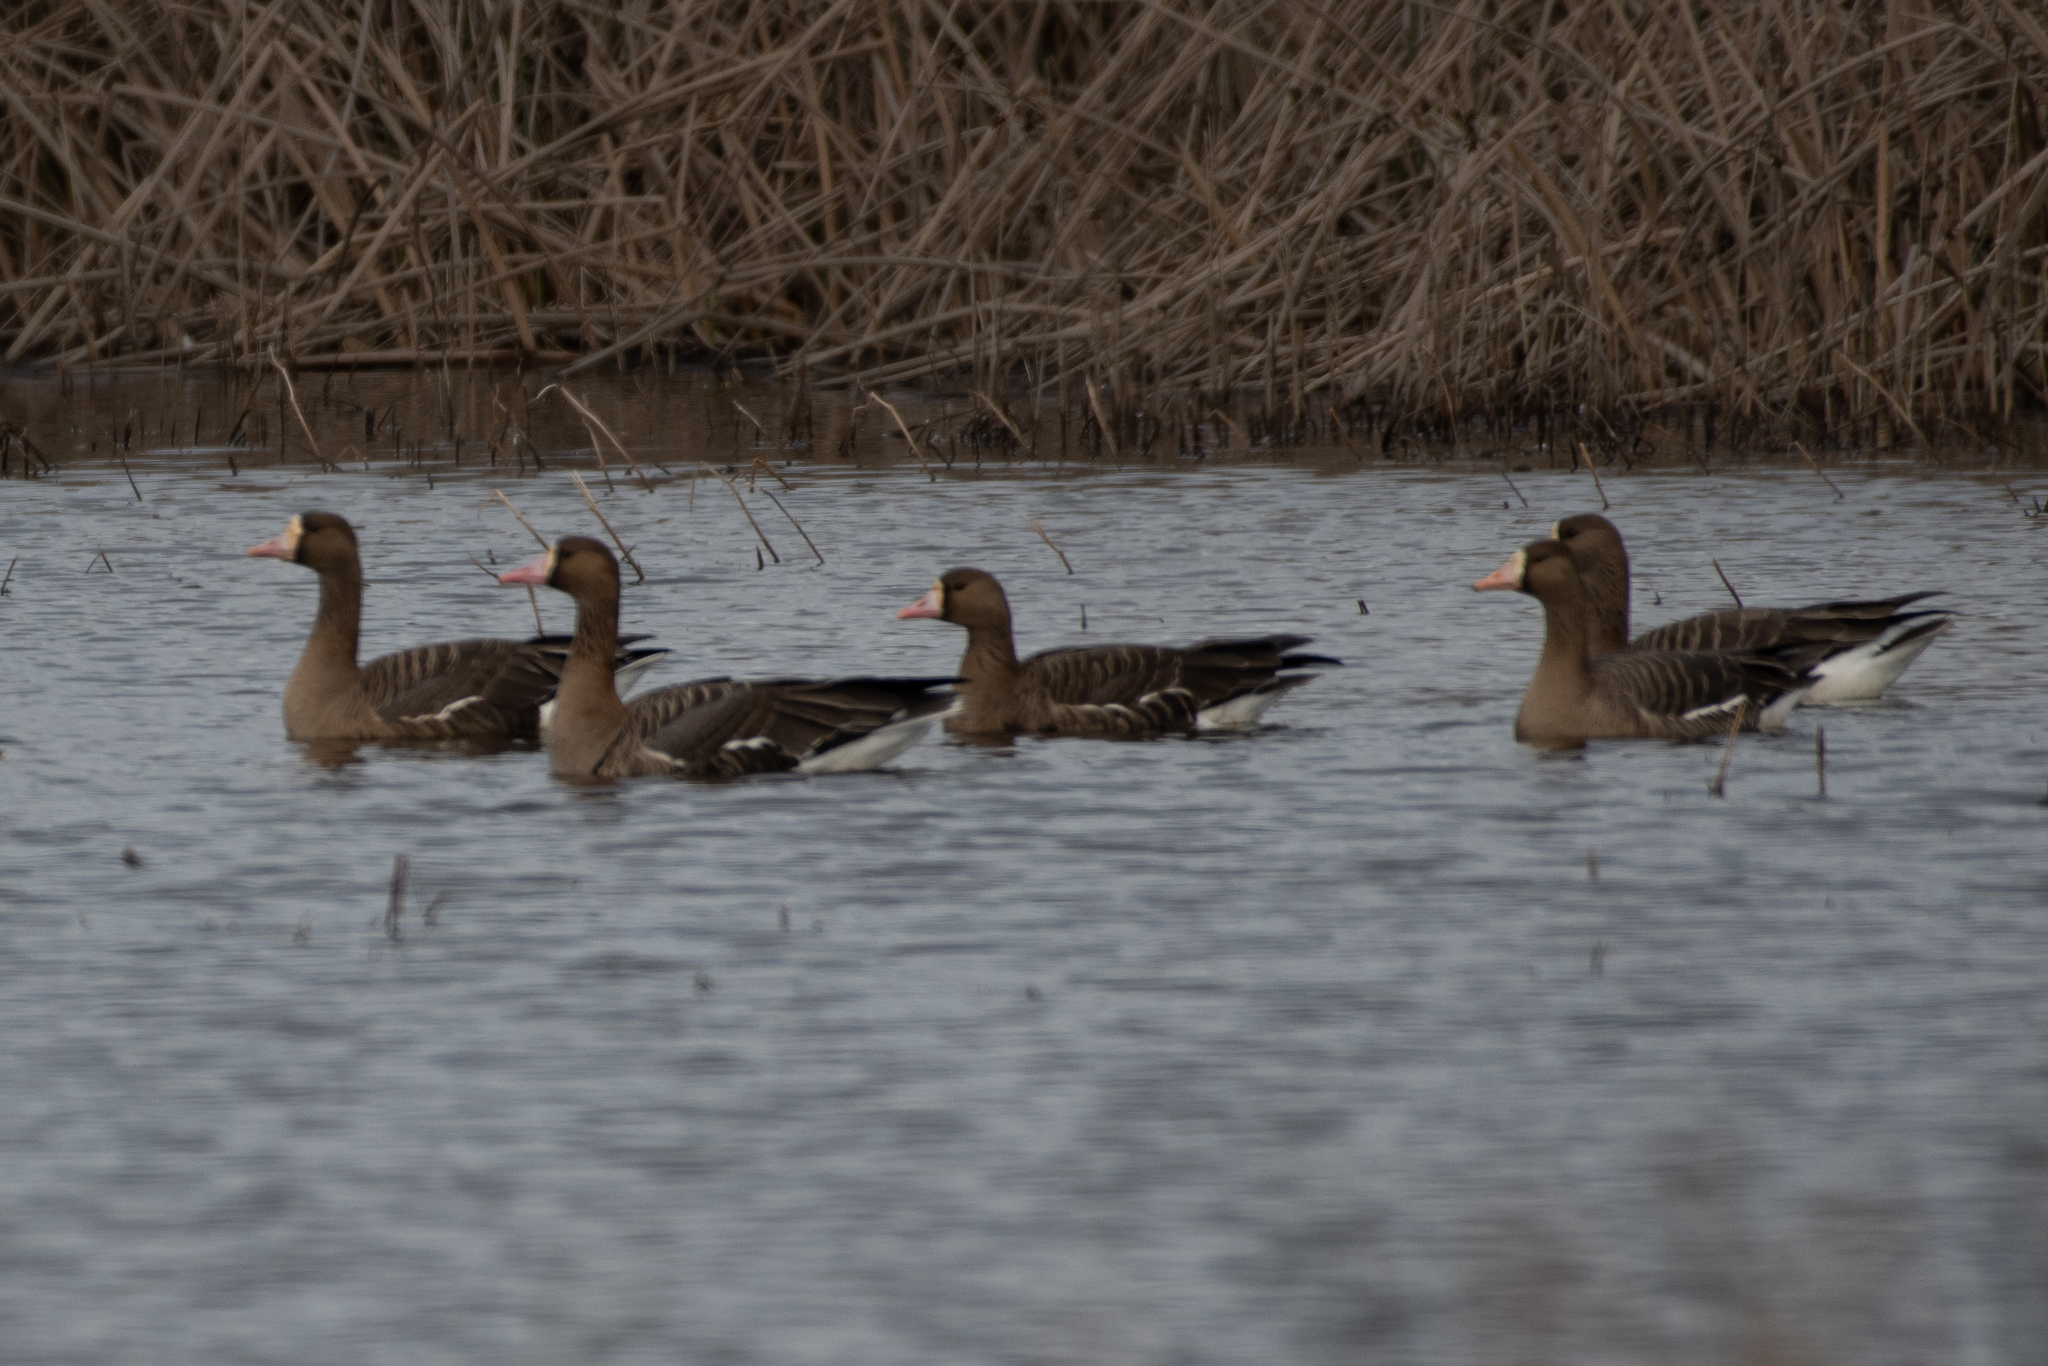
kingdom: Animalia
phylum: Chordata
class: Aves
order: Anseriformes
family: Anatidae
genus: Anser
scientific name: Anser albifrons
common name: Greater white-fronted goose
